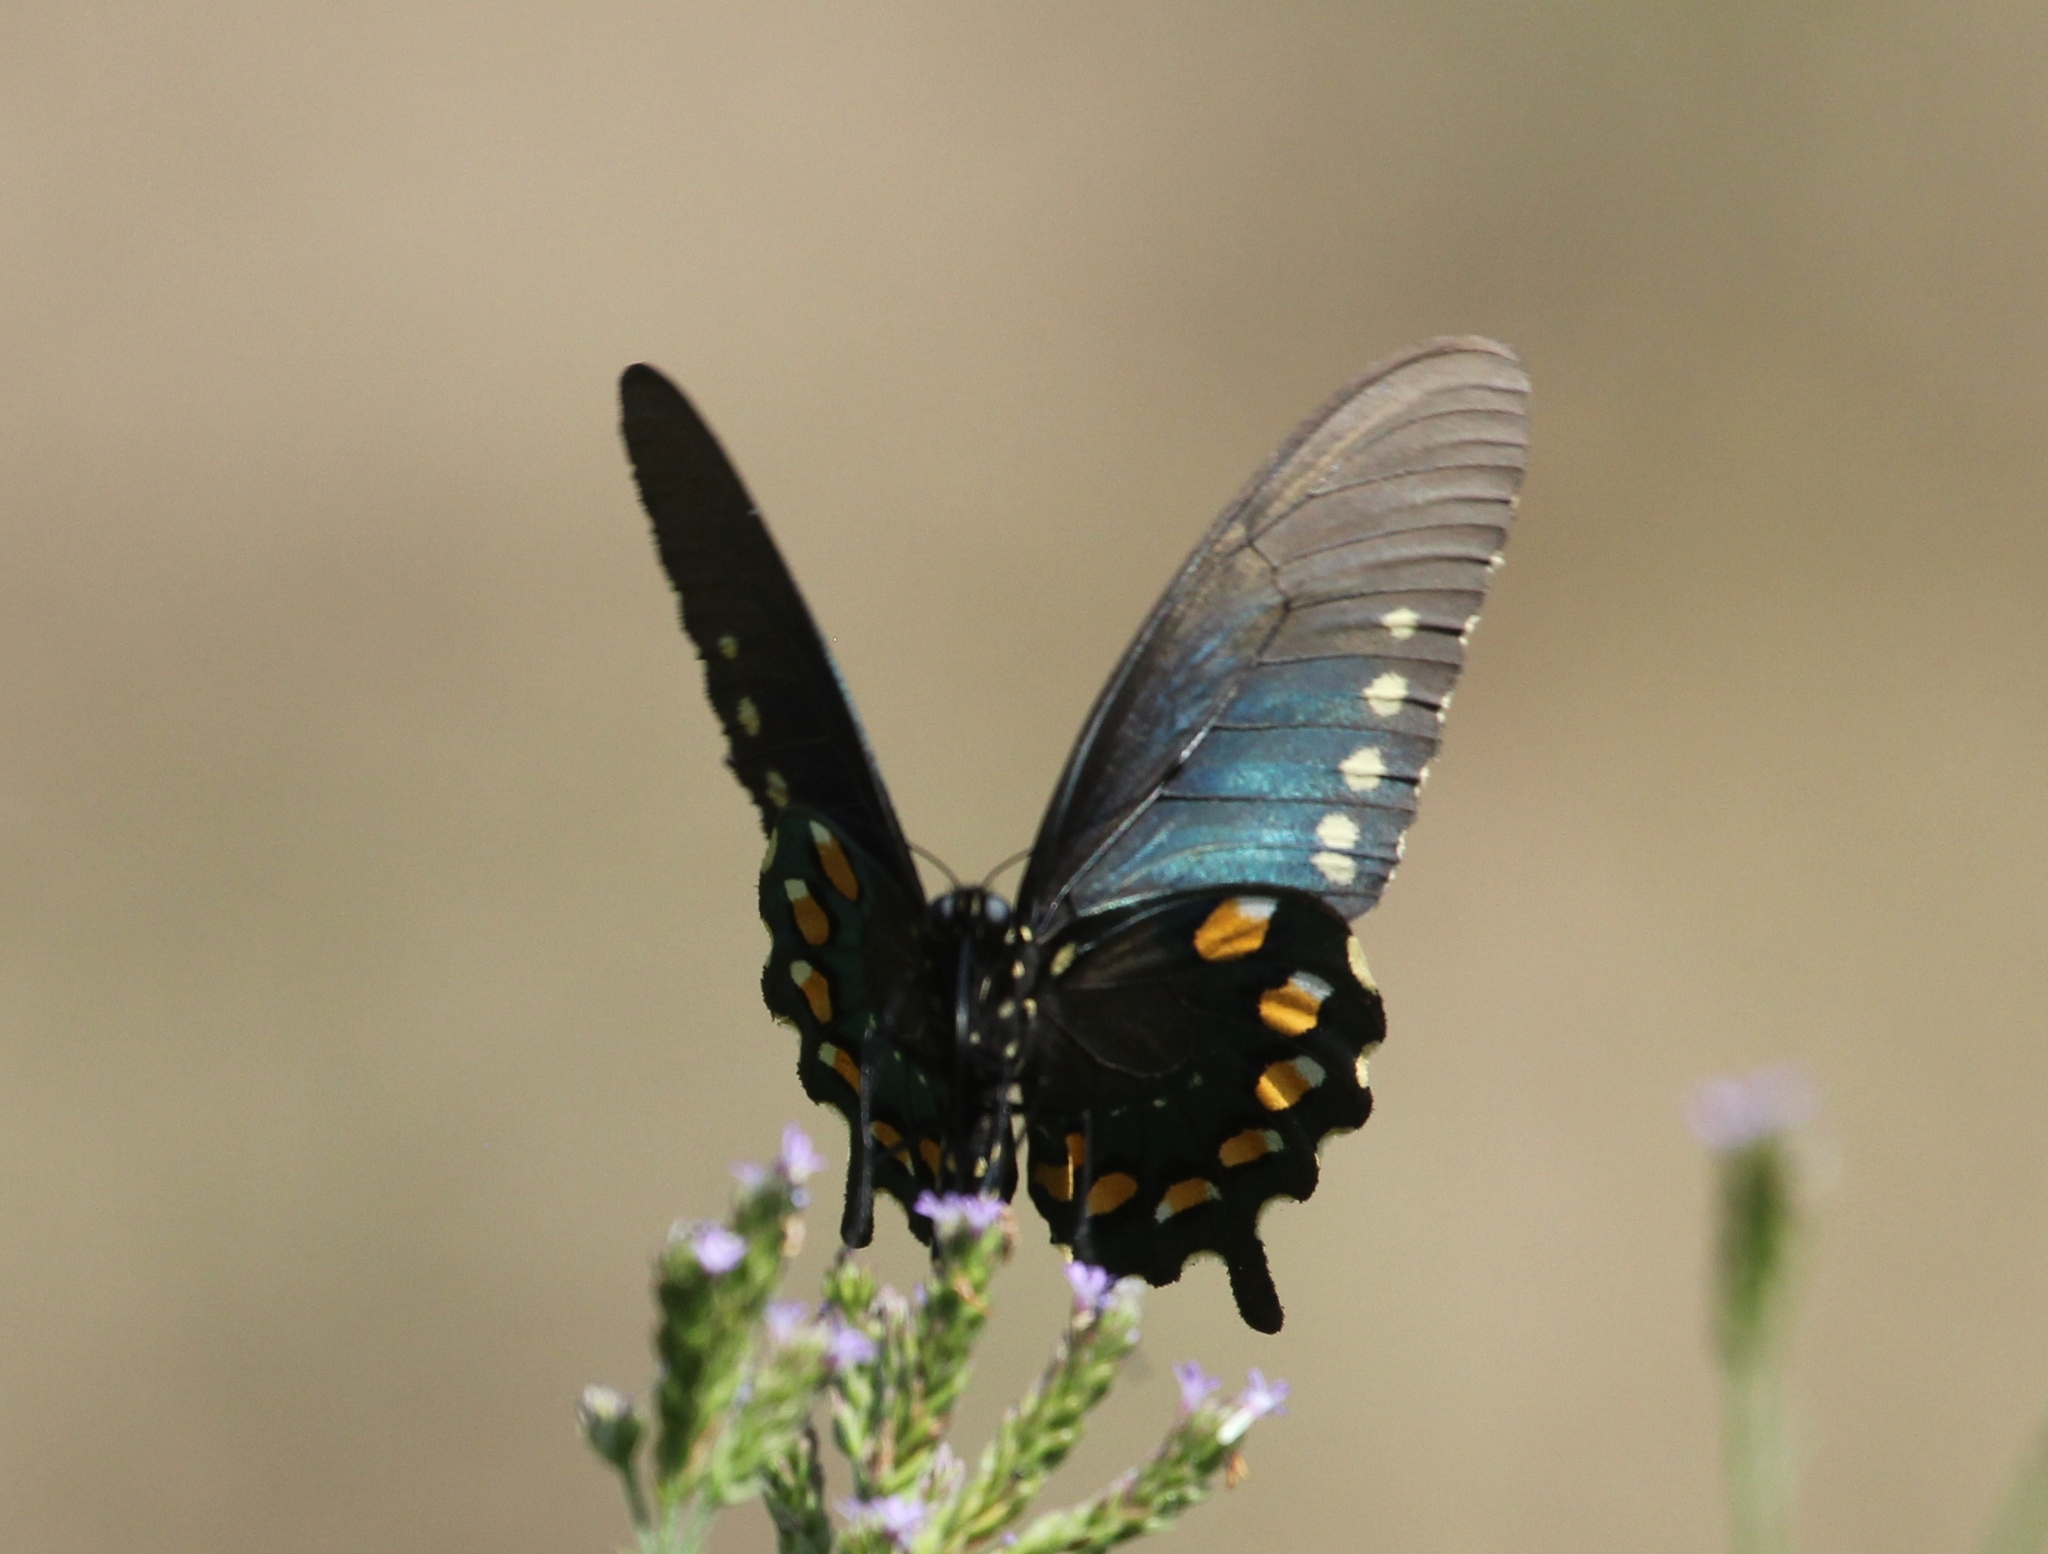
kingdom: Animalia
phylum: Arthropoda
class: Insecta
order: Lepidoptera
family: Papilionidae
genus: Battus
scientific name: Battus philenor
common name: Pipevine swallowtail
